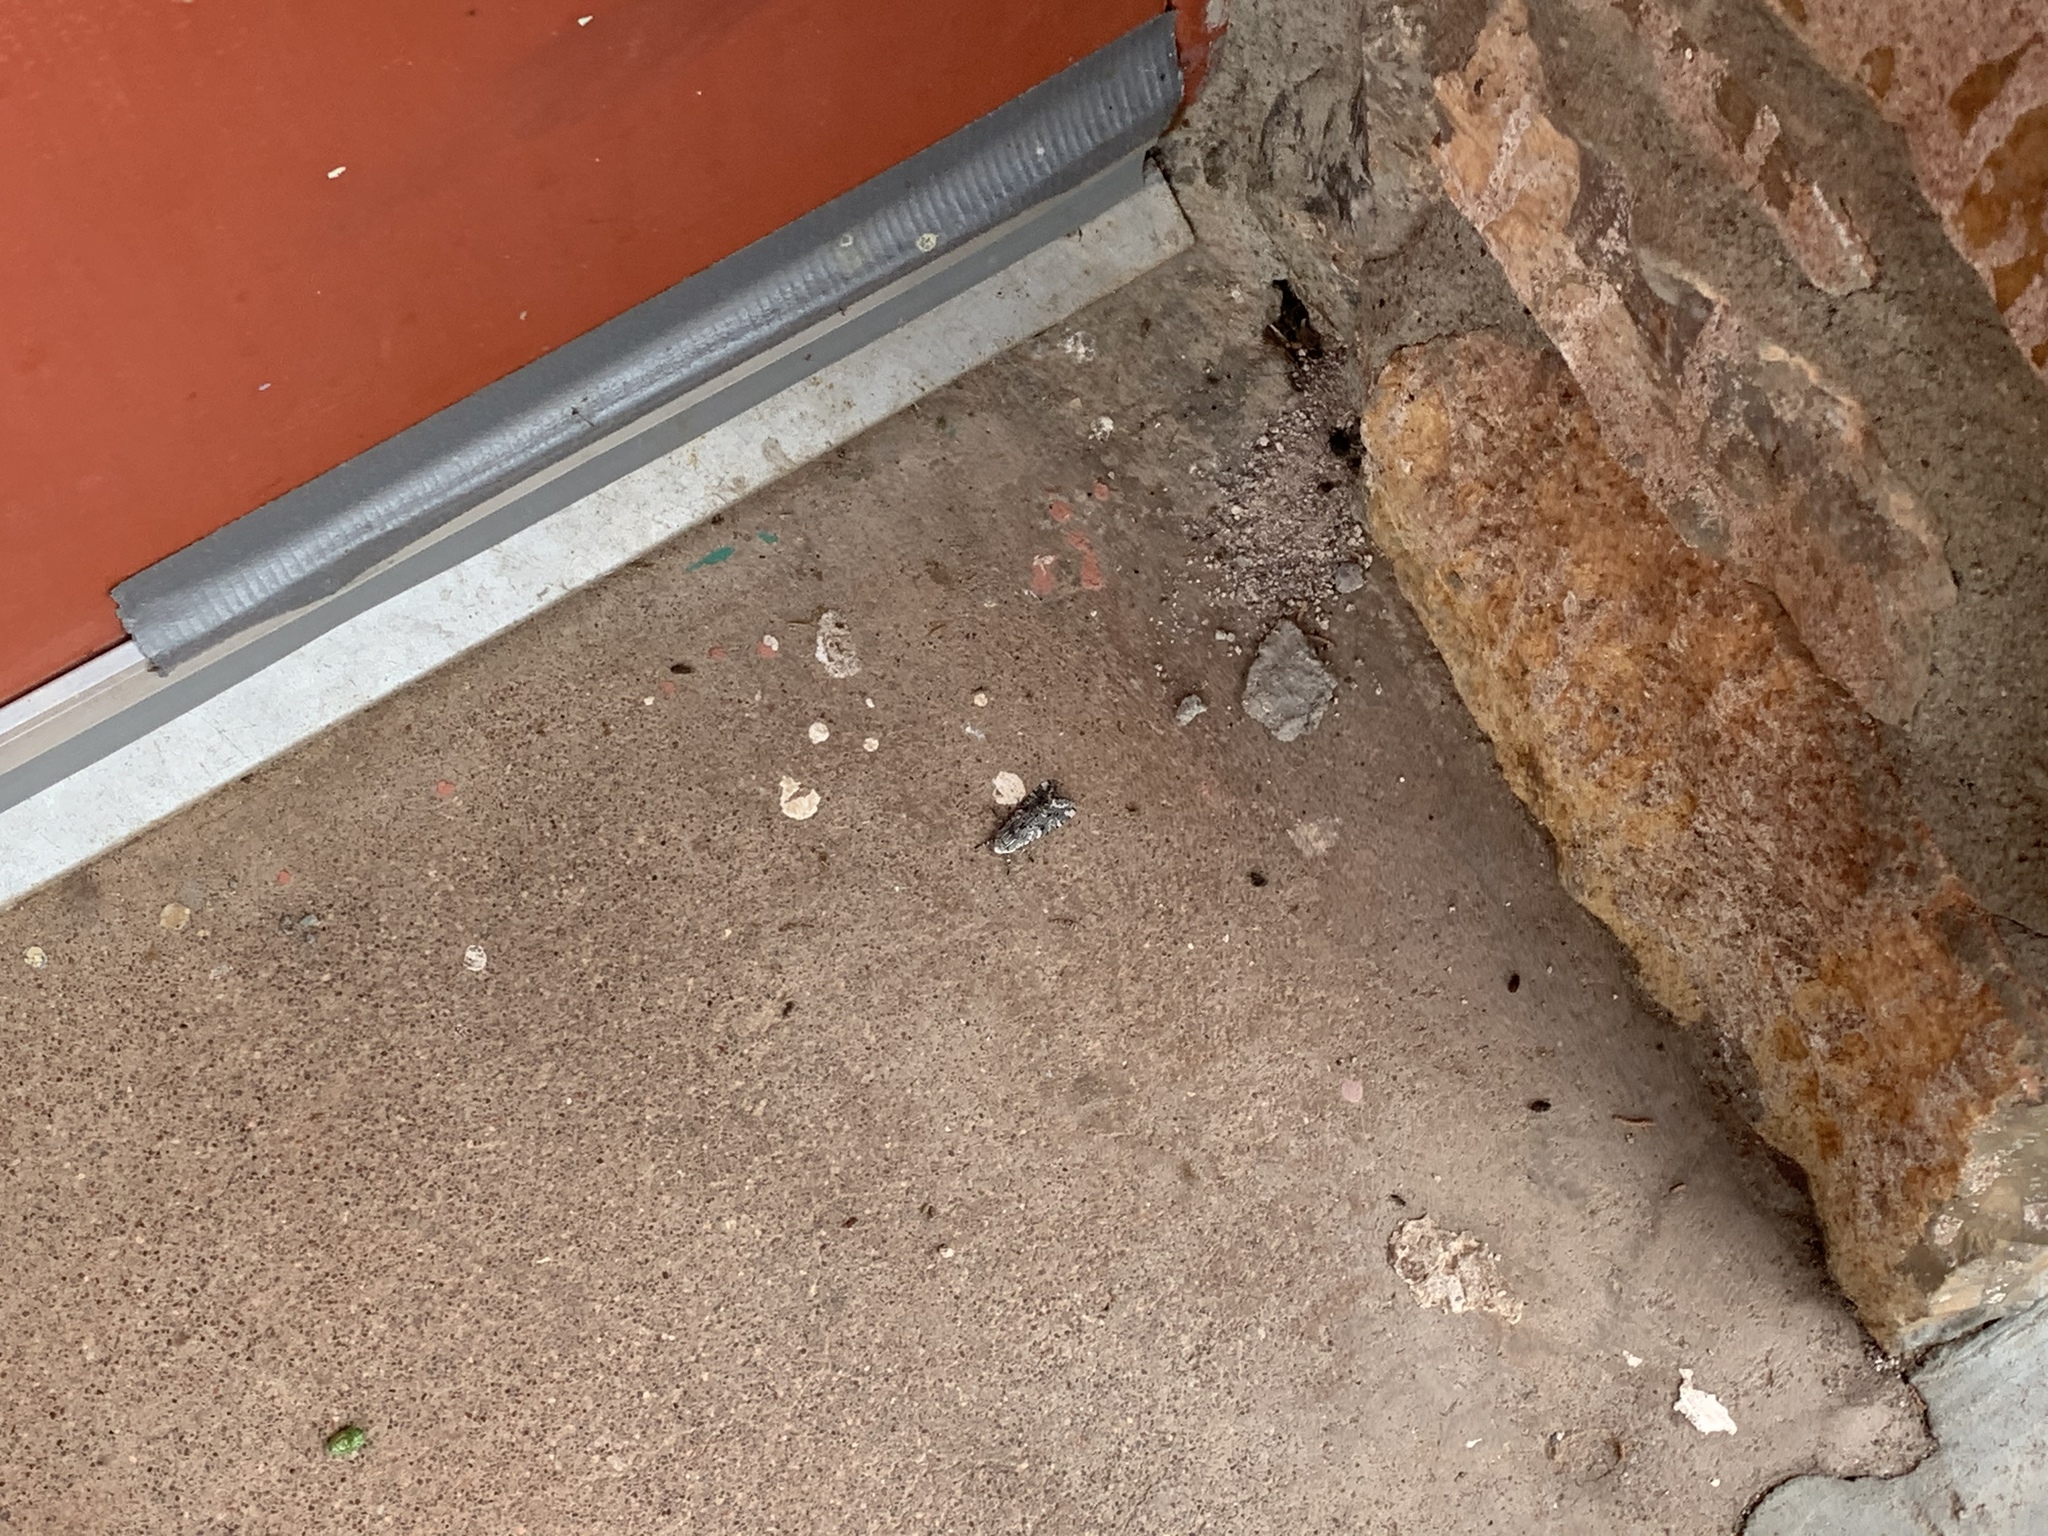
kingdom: Animalia
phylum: Arthropoda
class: Insecta
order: Lepidoptera
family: Erebidae
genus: Arachnis
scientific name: Arachnis picta
